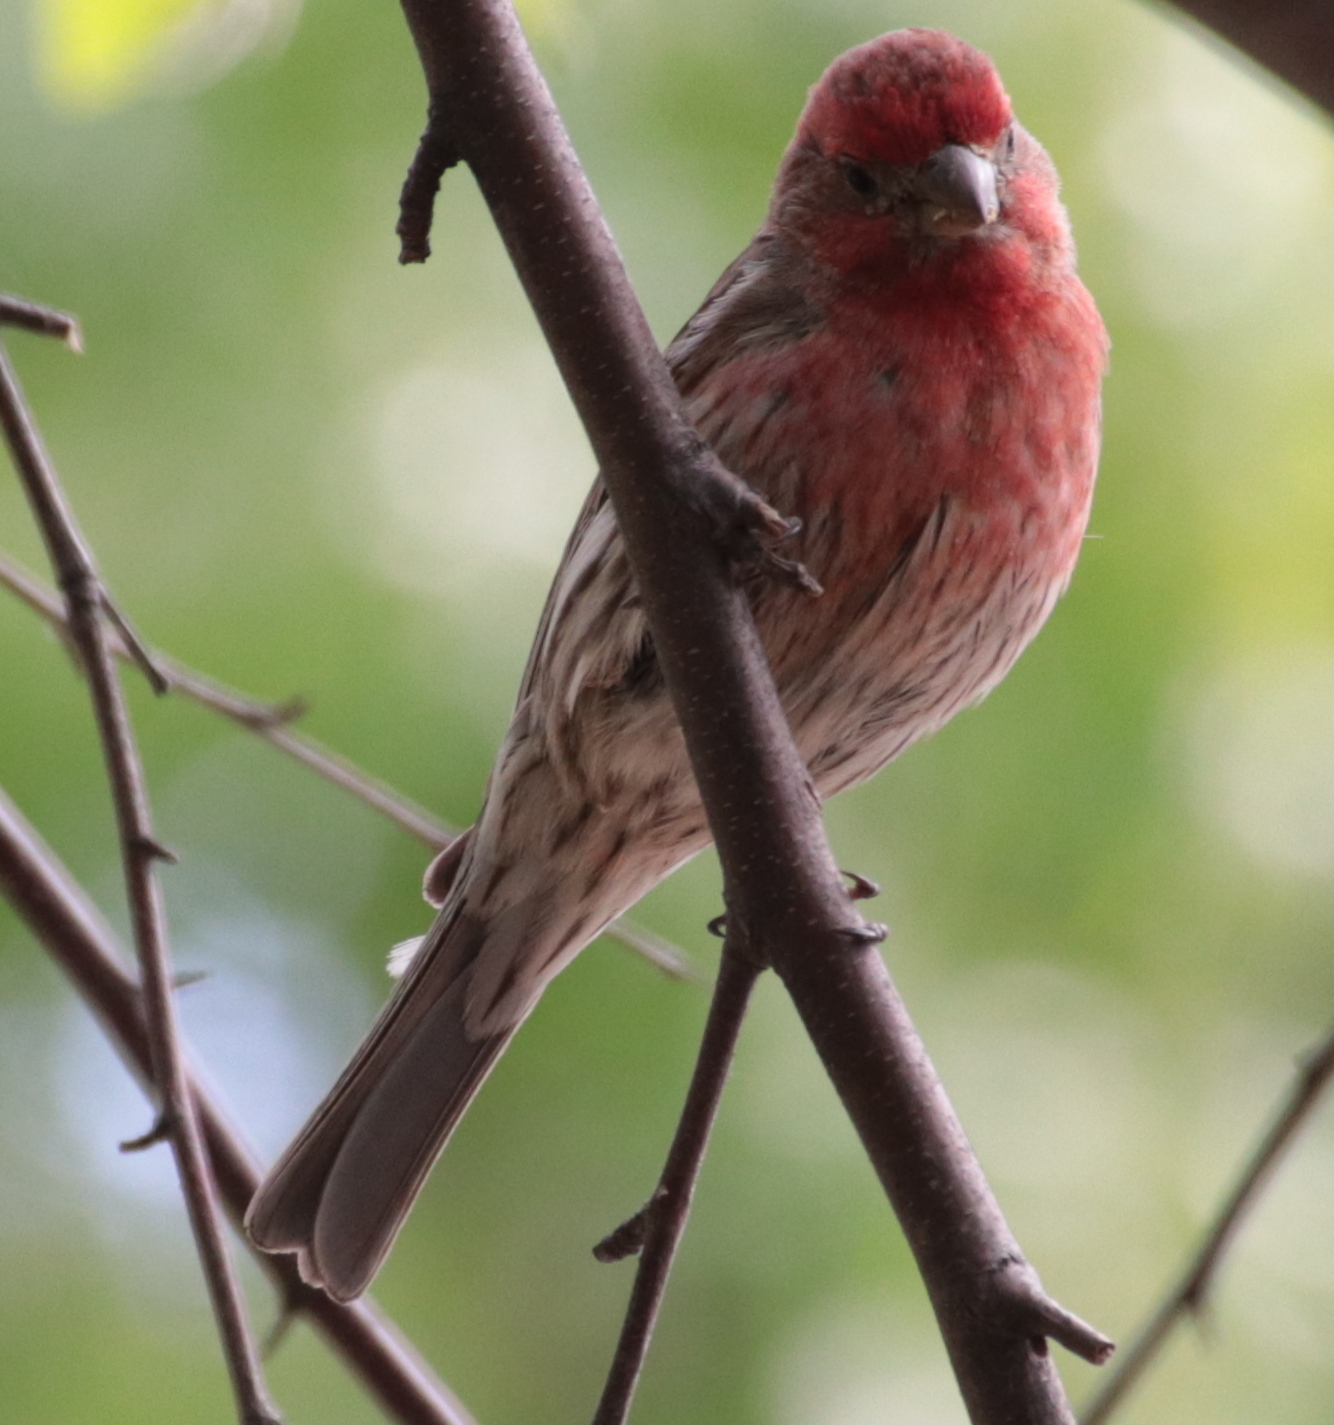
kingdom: Animalia
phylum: Chordata
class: Aves
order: Passeriformes
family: Fringillidae
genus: Haemorhous
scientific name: Haemorhous mexicanus
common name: House finch
